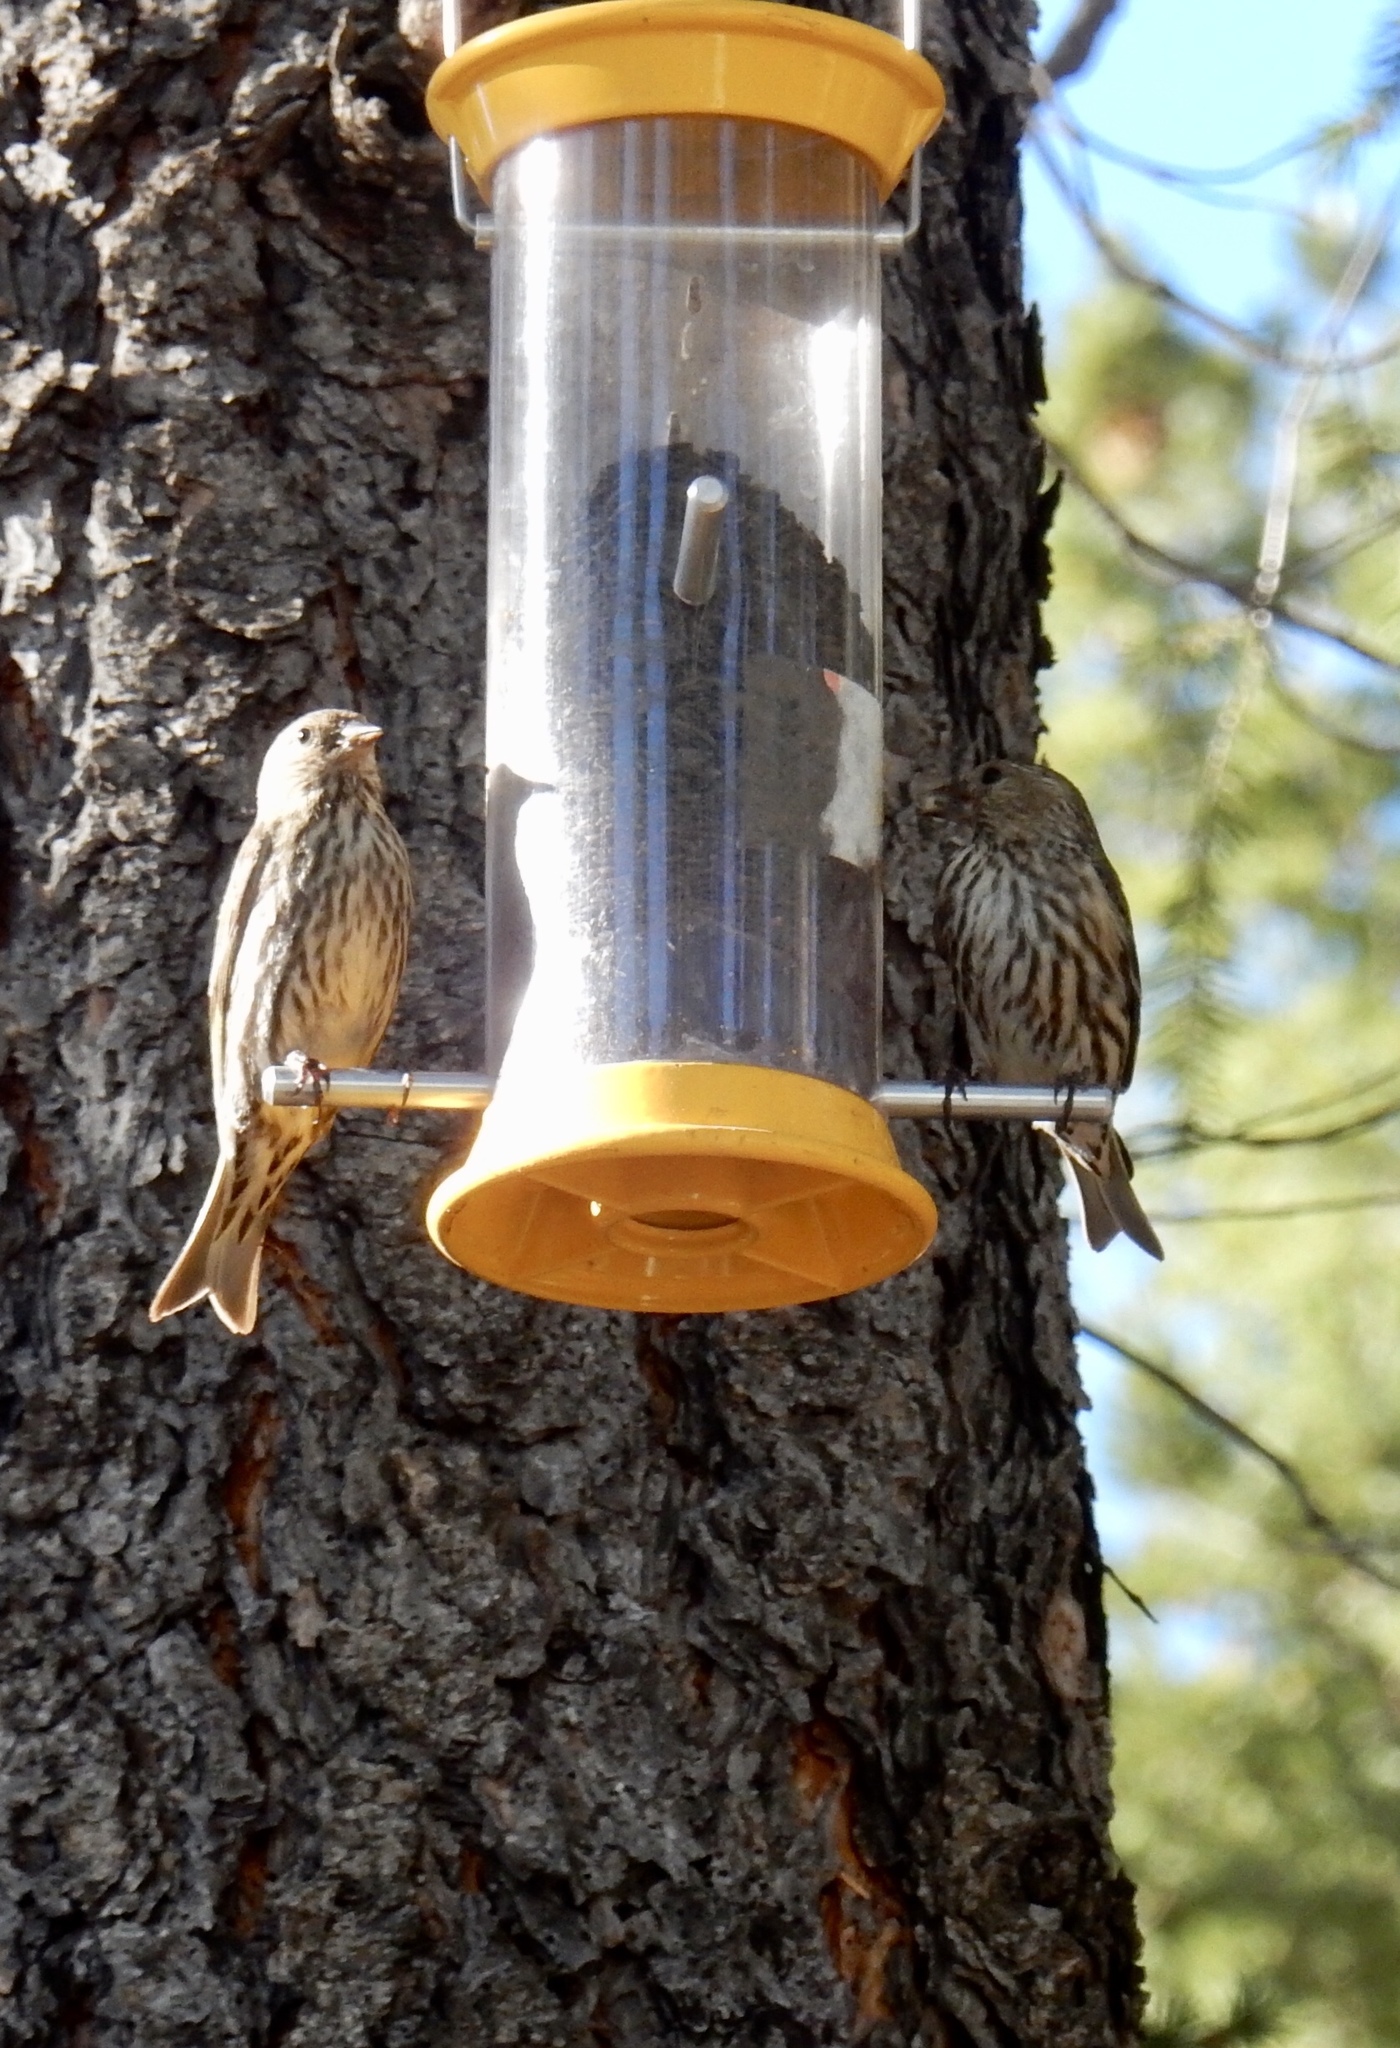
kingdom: Animalia
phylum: Chordata
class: Aves
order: Passeriformes
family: Fringillidae
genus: Spinus
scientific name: Spinus pinus
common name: Pine siskin
